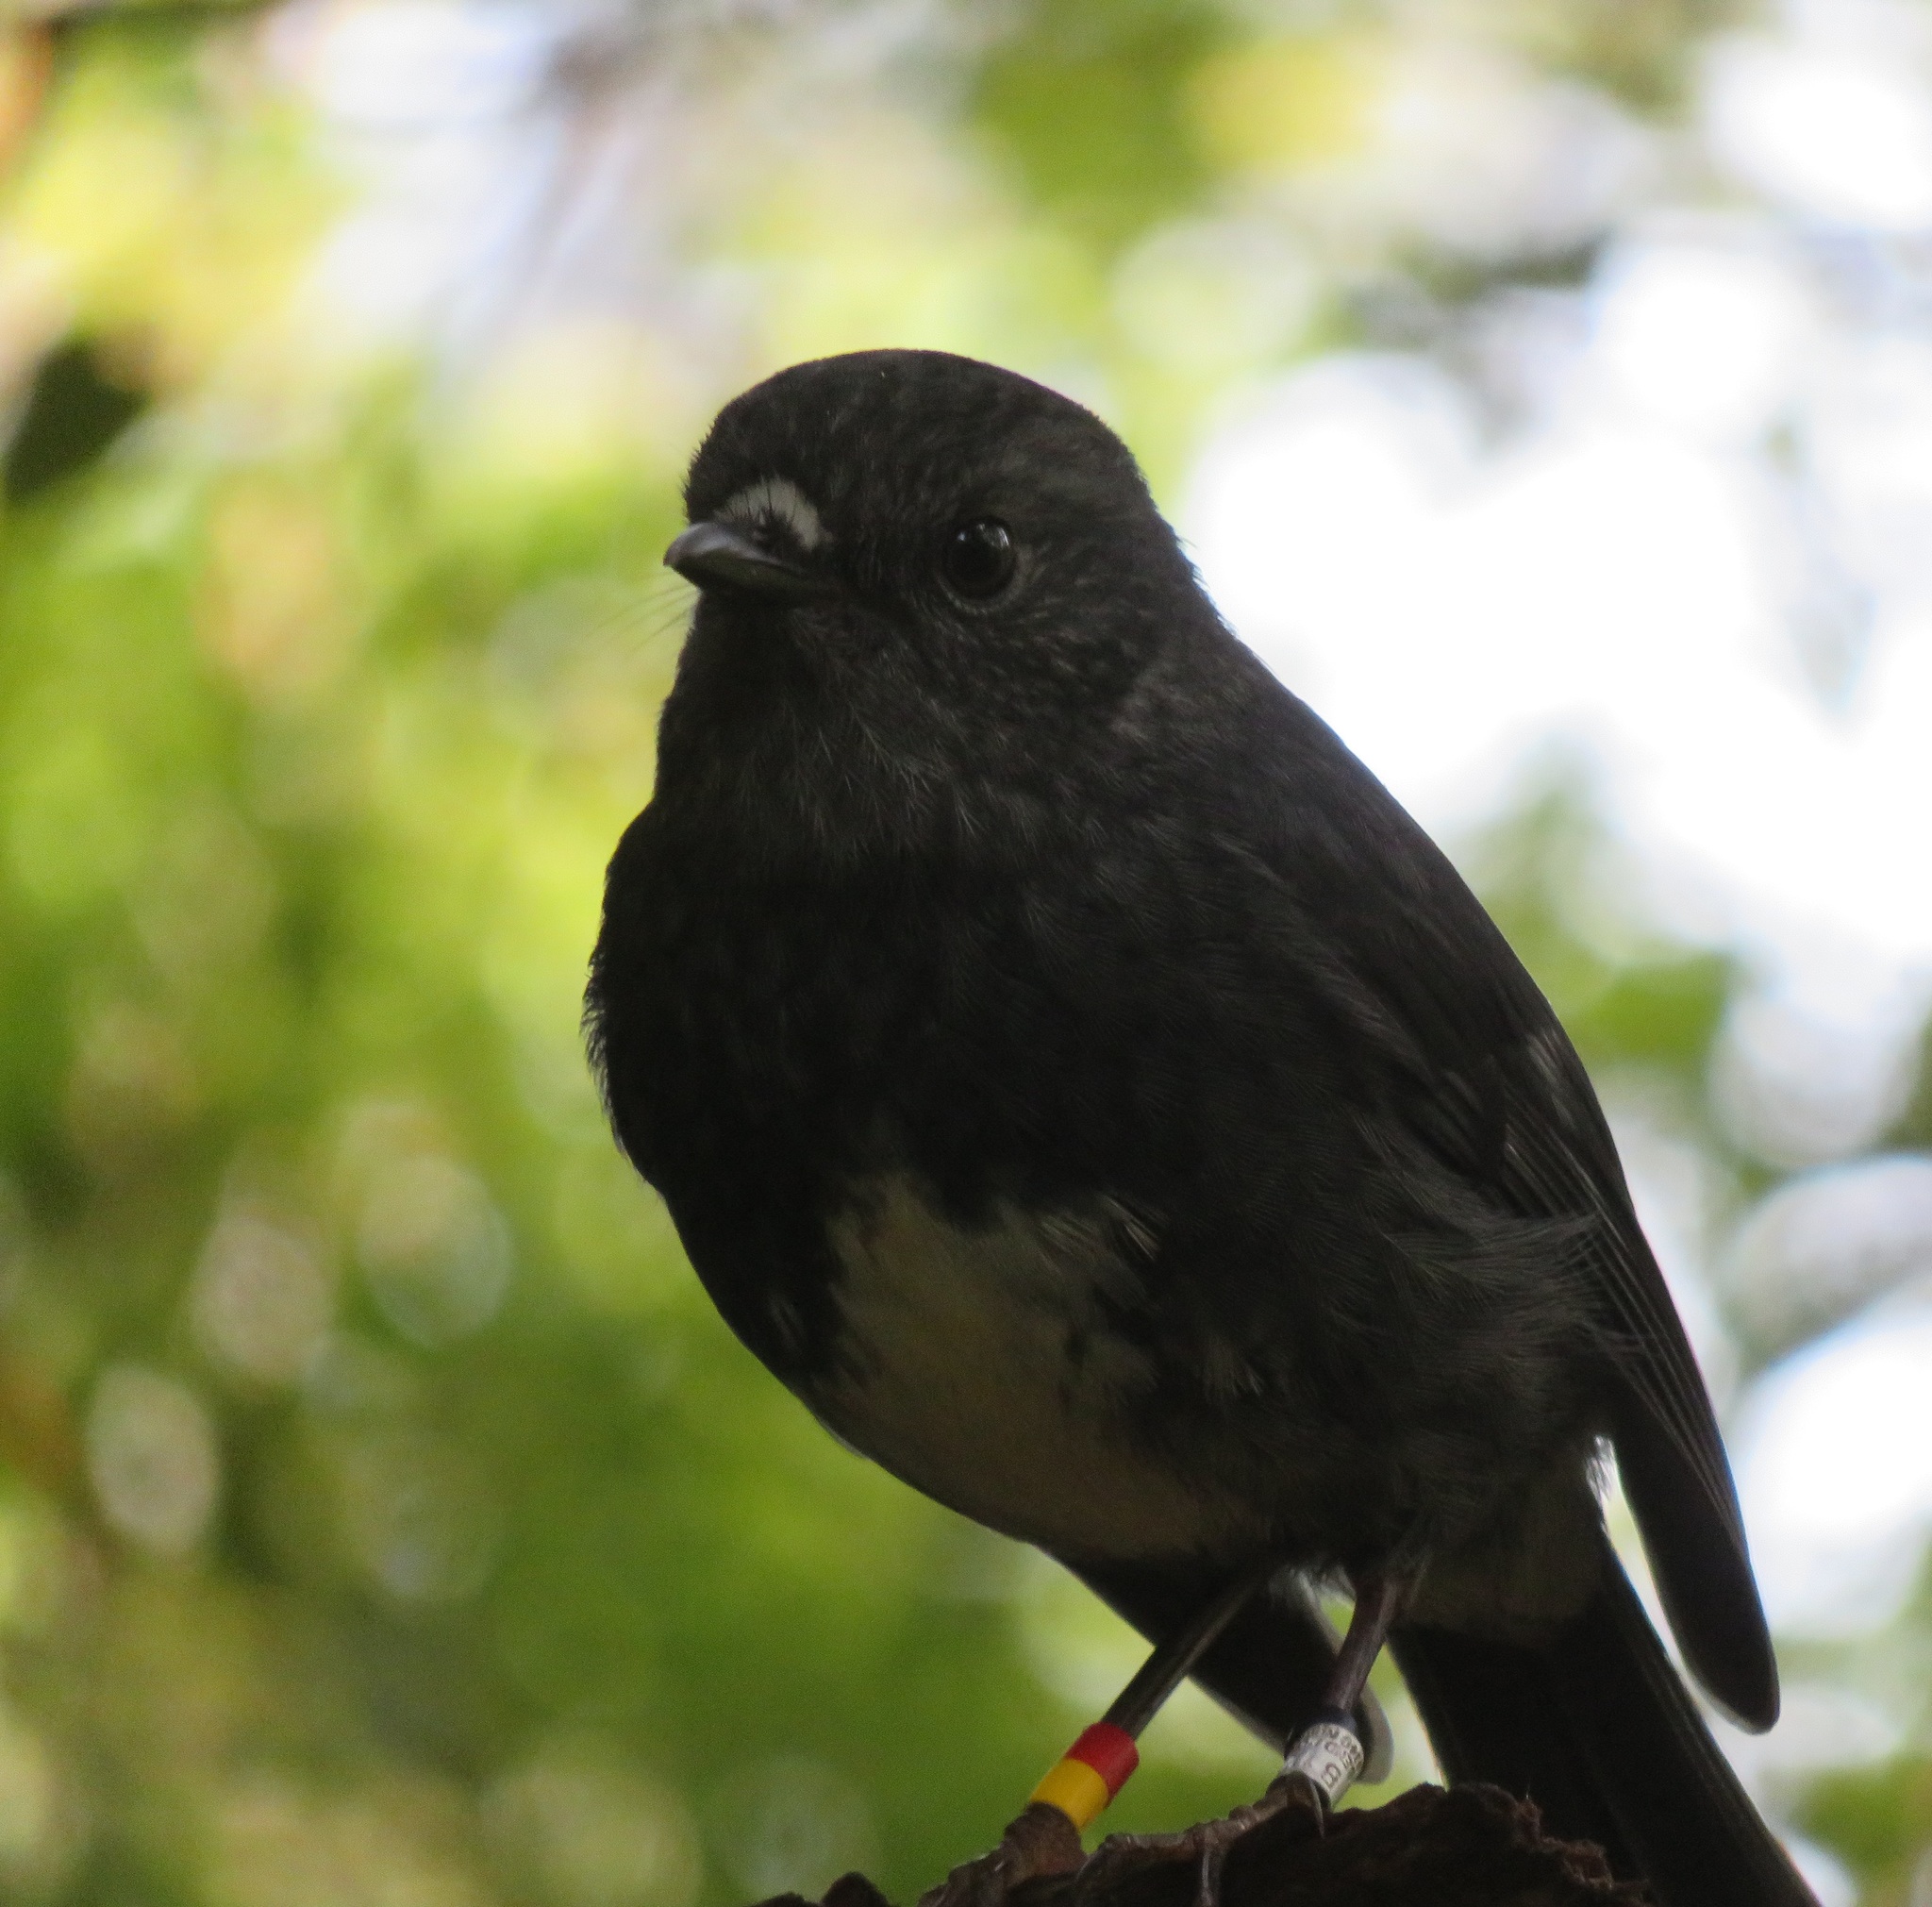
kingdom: Animalia
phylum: Chordata
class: Aves
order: Passeriformes
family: Petroicidae
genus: Petroica
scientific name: Petroica australis
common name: New zealand robin
